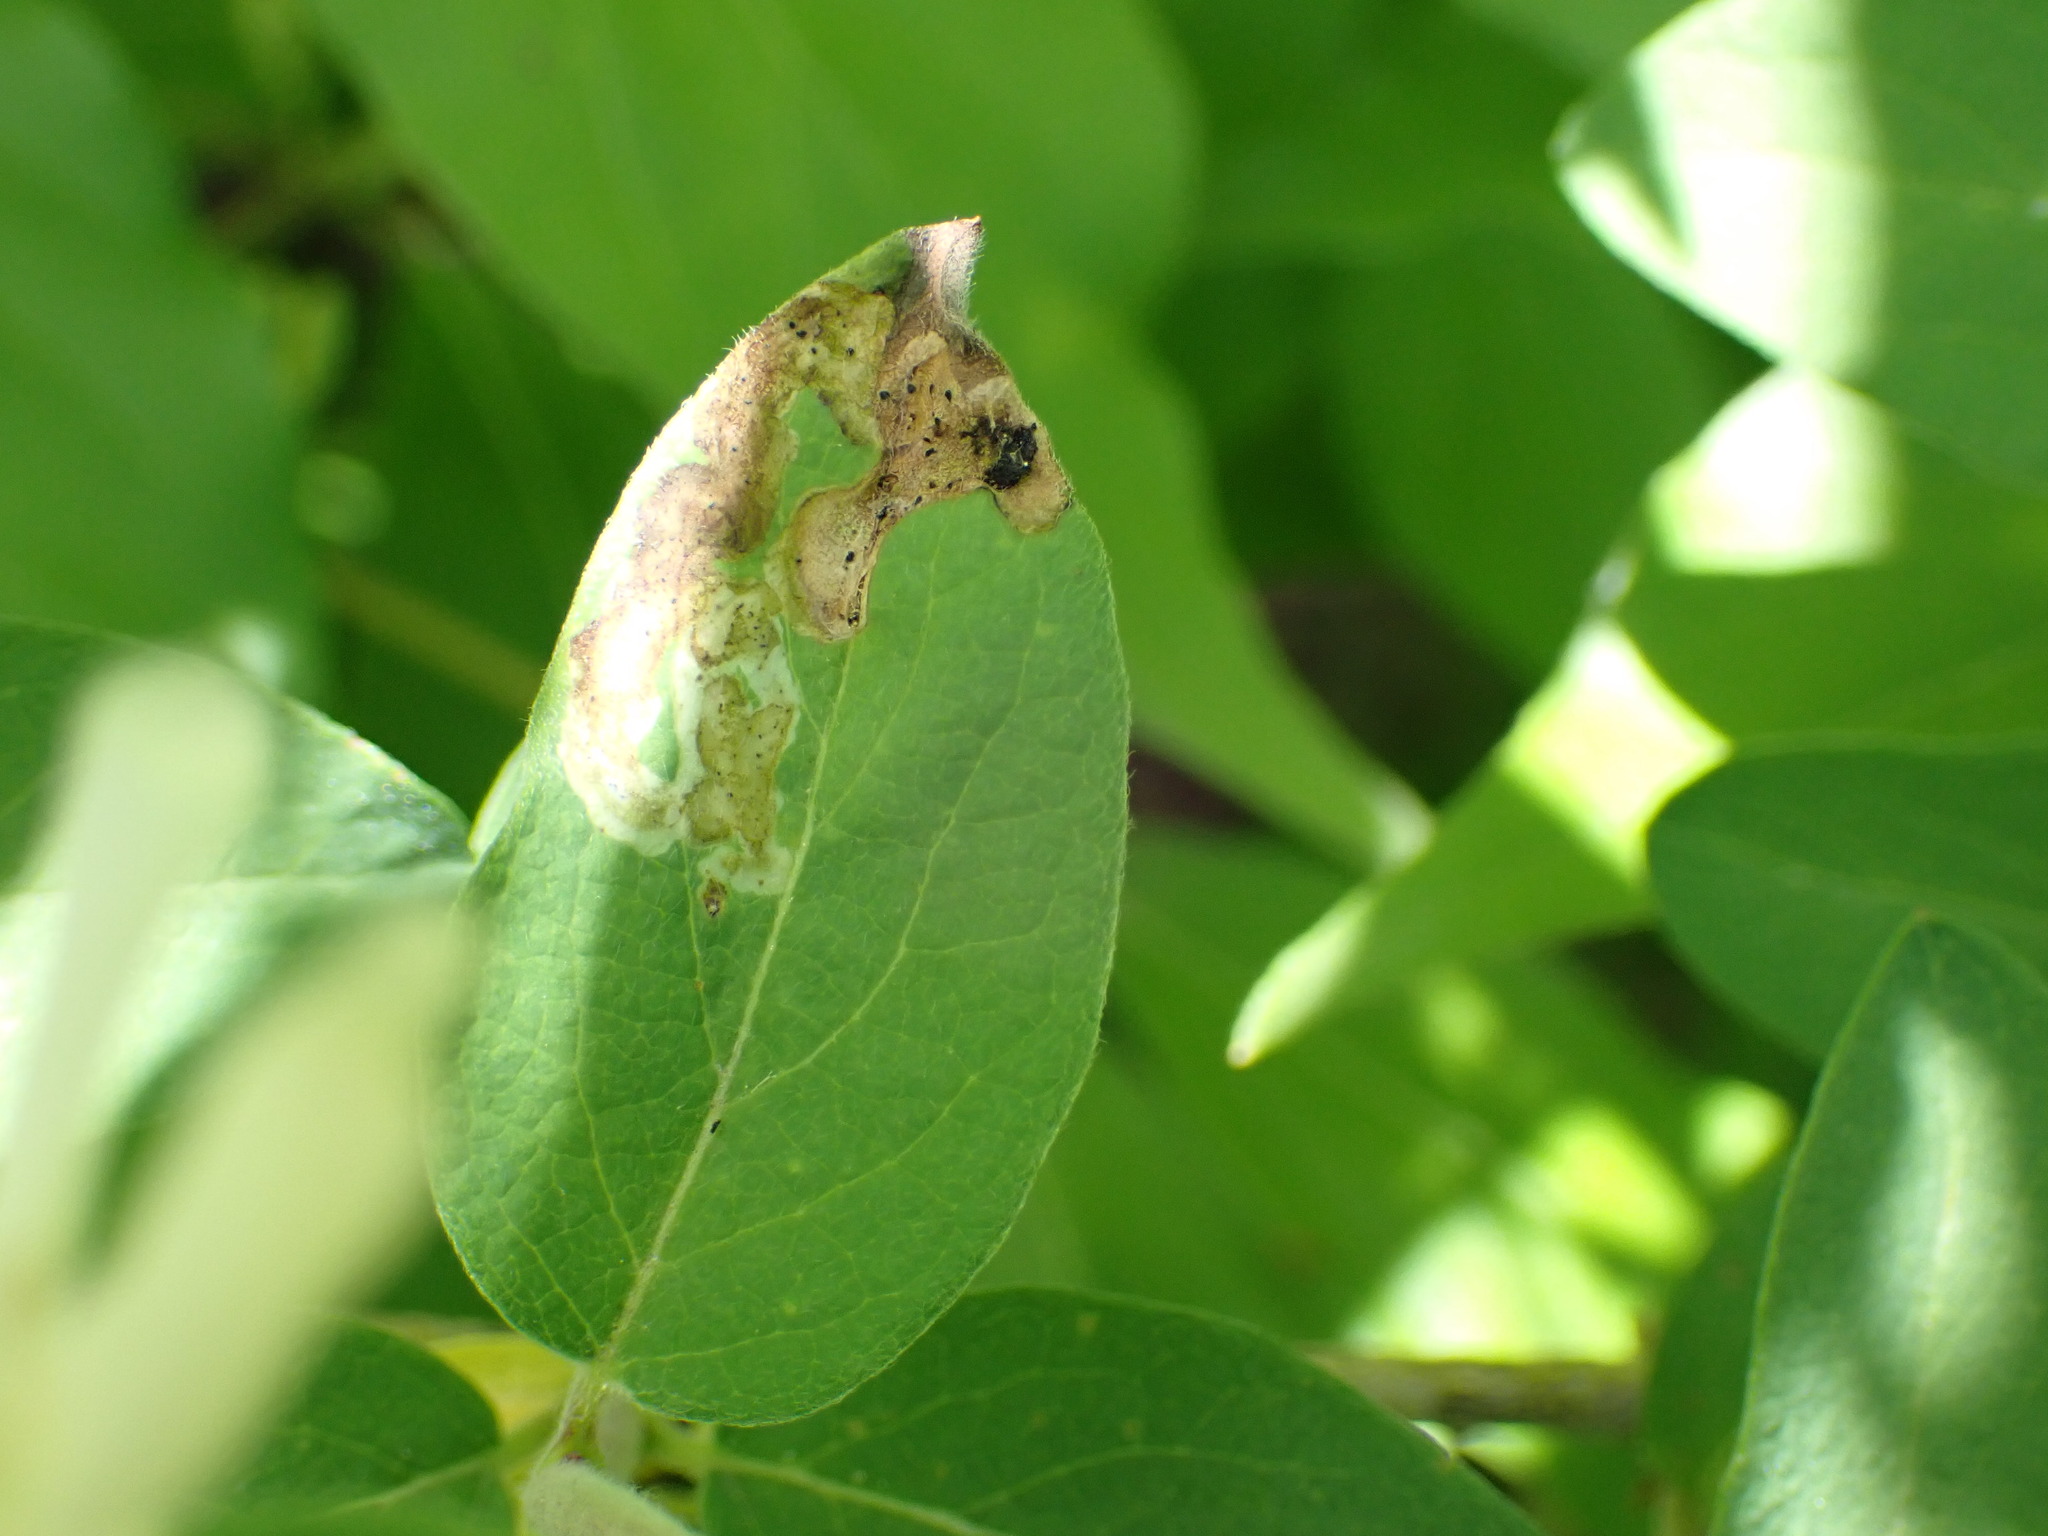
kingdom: Animalia
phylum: Arthropoda
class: Insecta
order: Diptera
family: Agromyzidae
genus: Aulagromyza
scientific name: Aulagromyza cornigera
